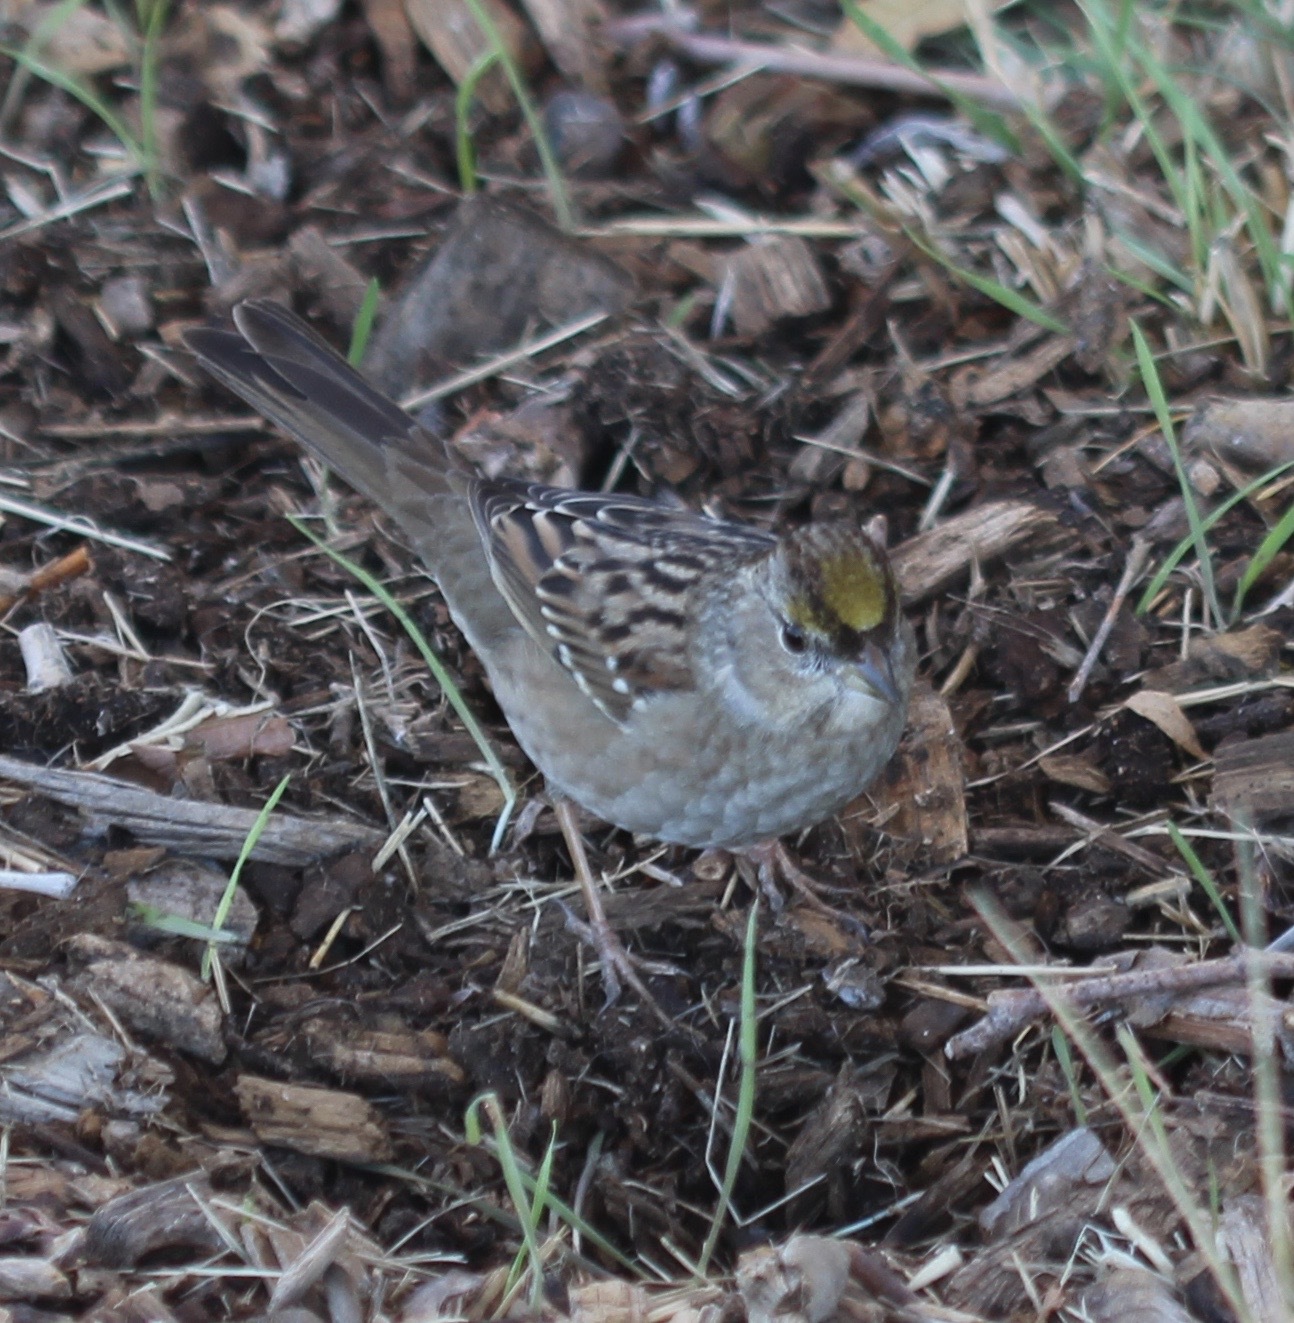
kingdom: Animalia
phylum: Chordata
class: Aves
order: Passeriformes
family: Passerellidae
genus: Zonotrichia
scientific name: Zonotrichia atricapilla
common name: Golden-crowned sparrow
